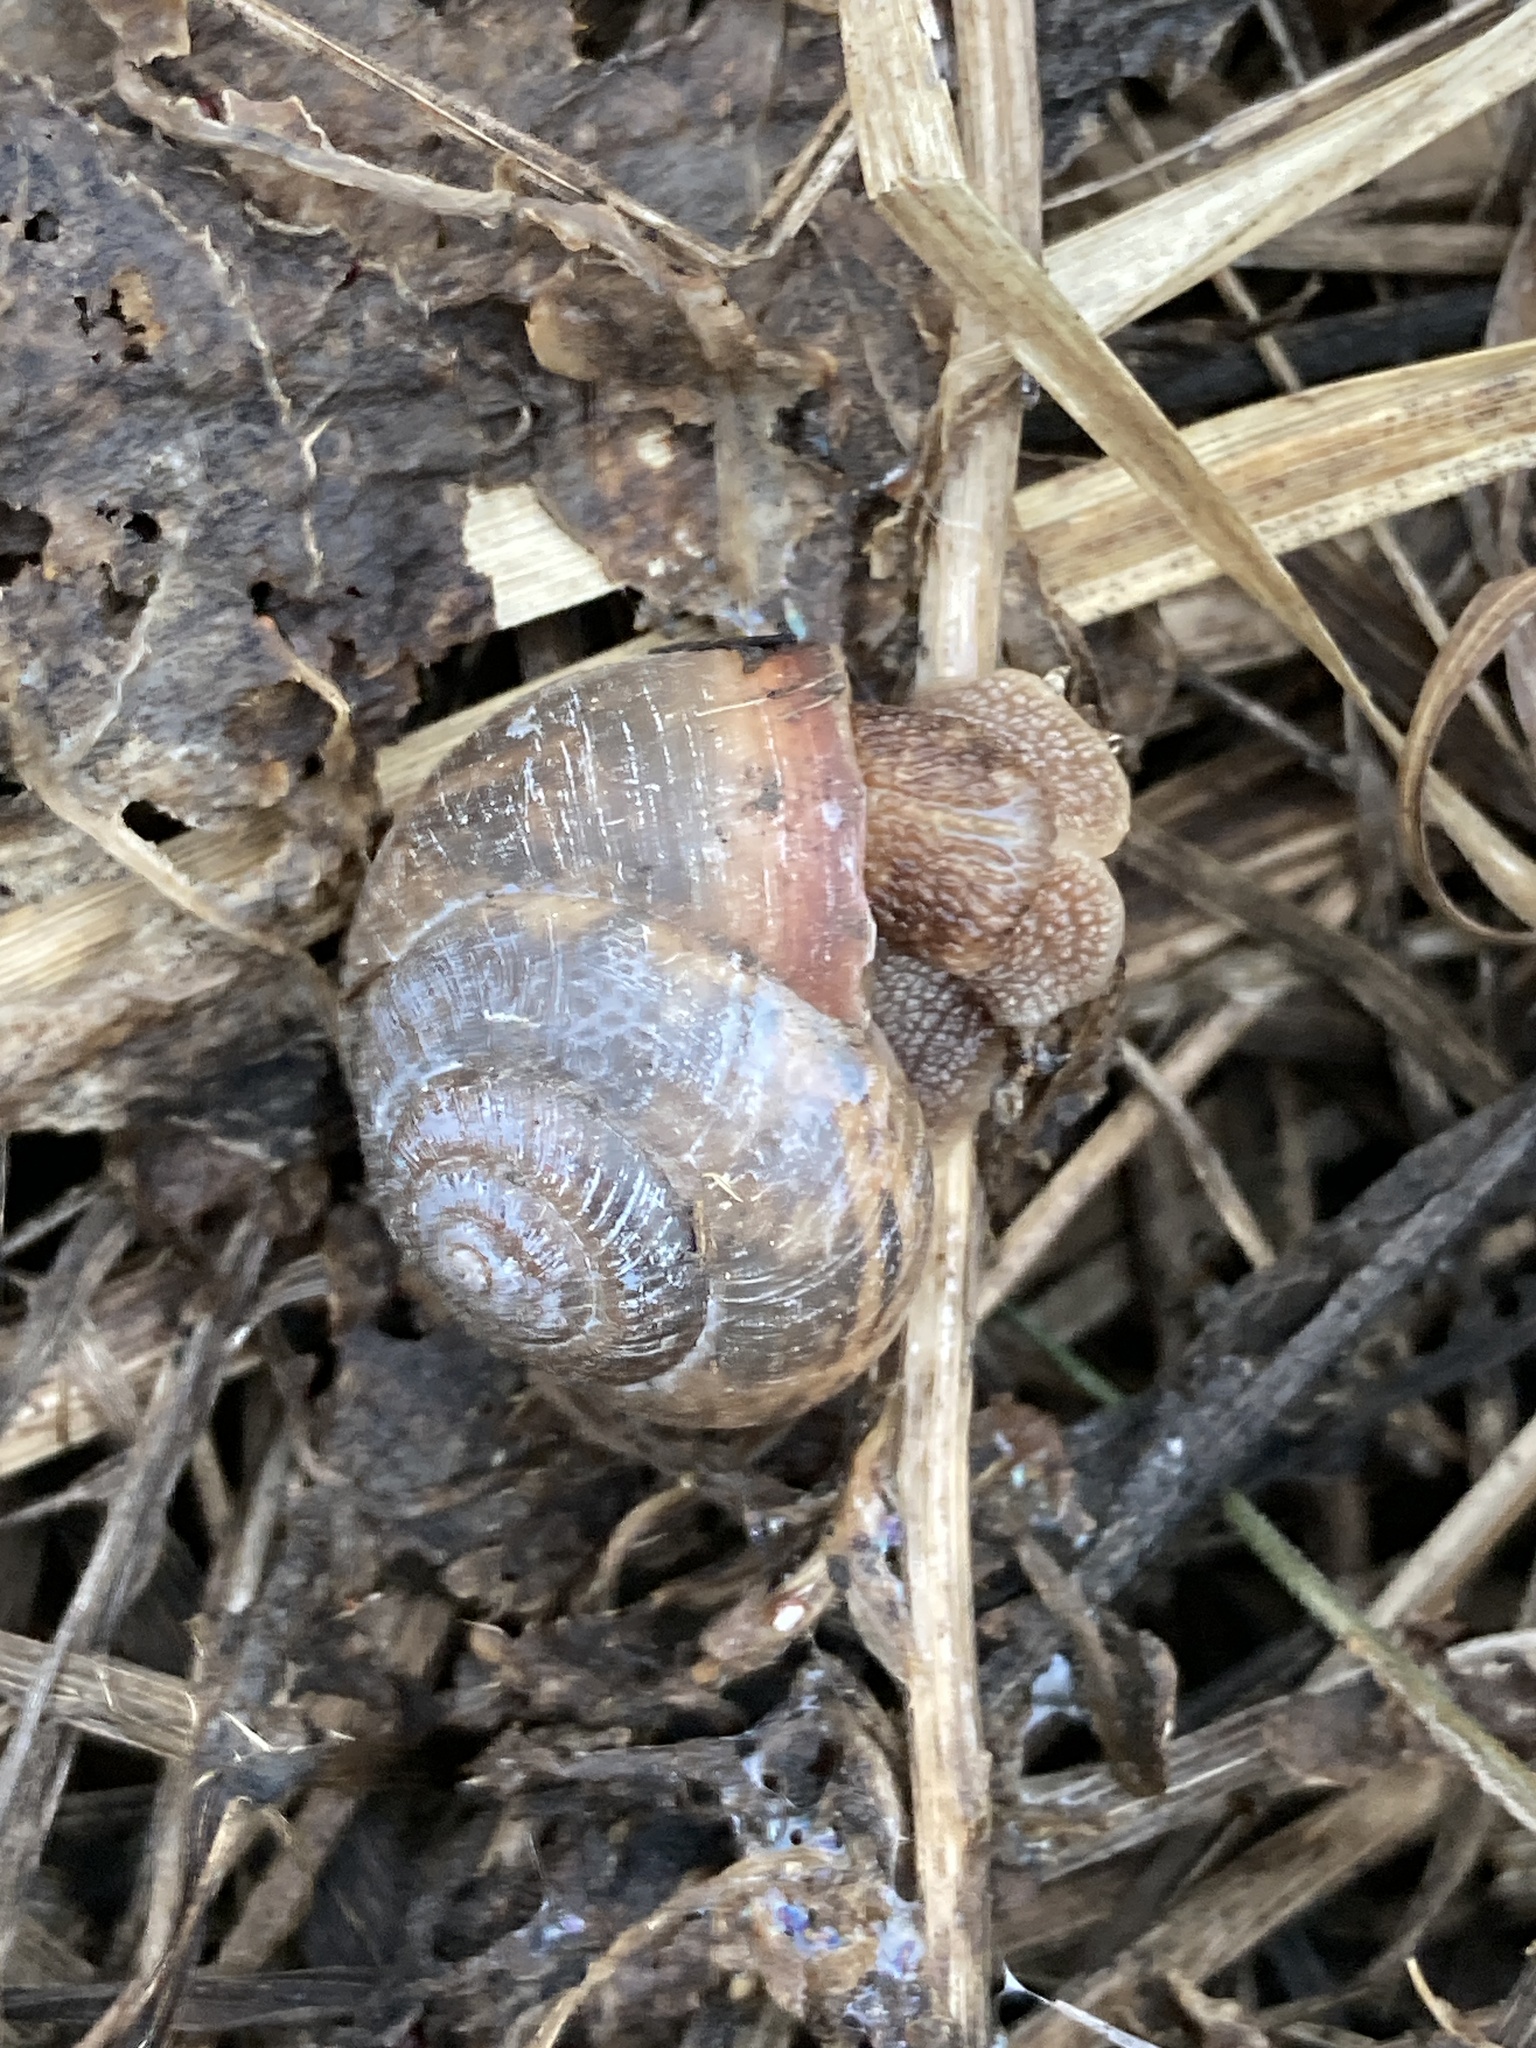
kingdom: Animalia
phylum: Mollusca
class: Gastropoda
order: Stylommatophora
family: Camaenidae
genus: Fruticicola
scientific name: Fruticicola fruticum
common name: Bush snail
